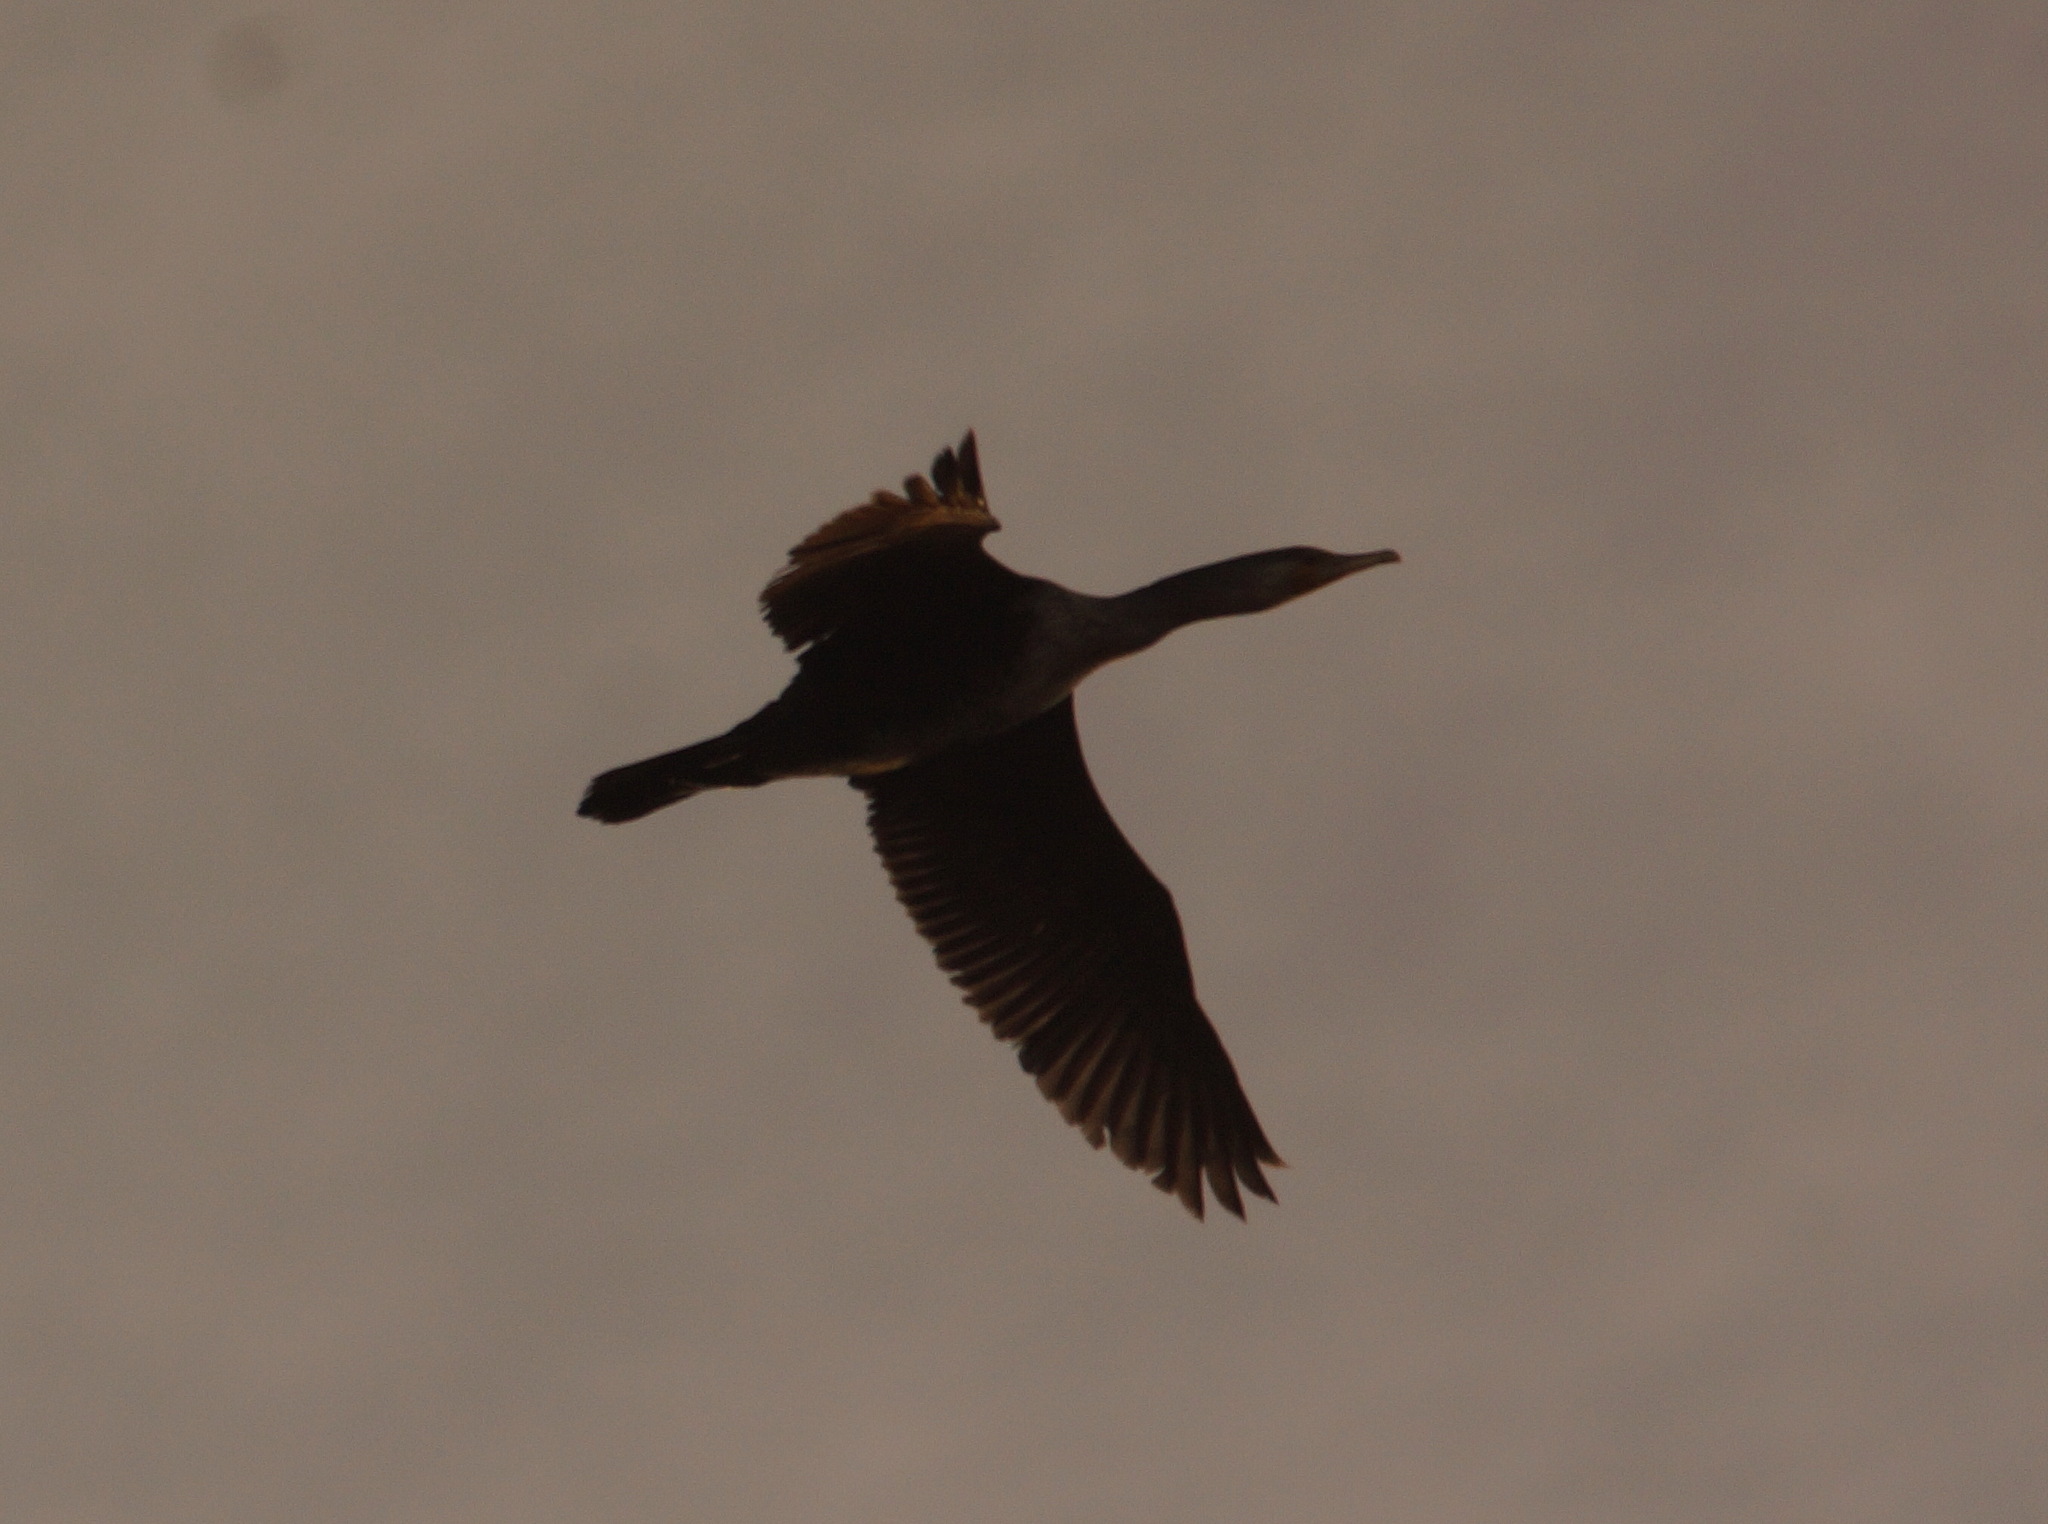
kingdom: Animalia
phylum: Chordata
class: Aves
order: Suliformes
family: Phalacrocoracidae
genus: Phalacrocorax
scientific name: Phalacrocorax carbo
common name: Great cormorant
